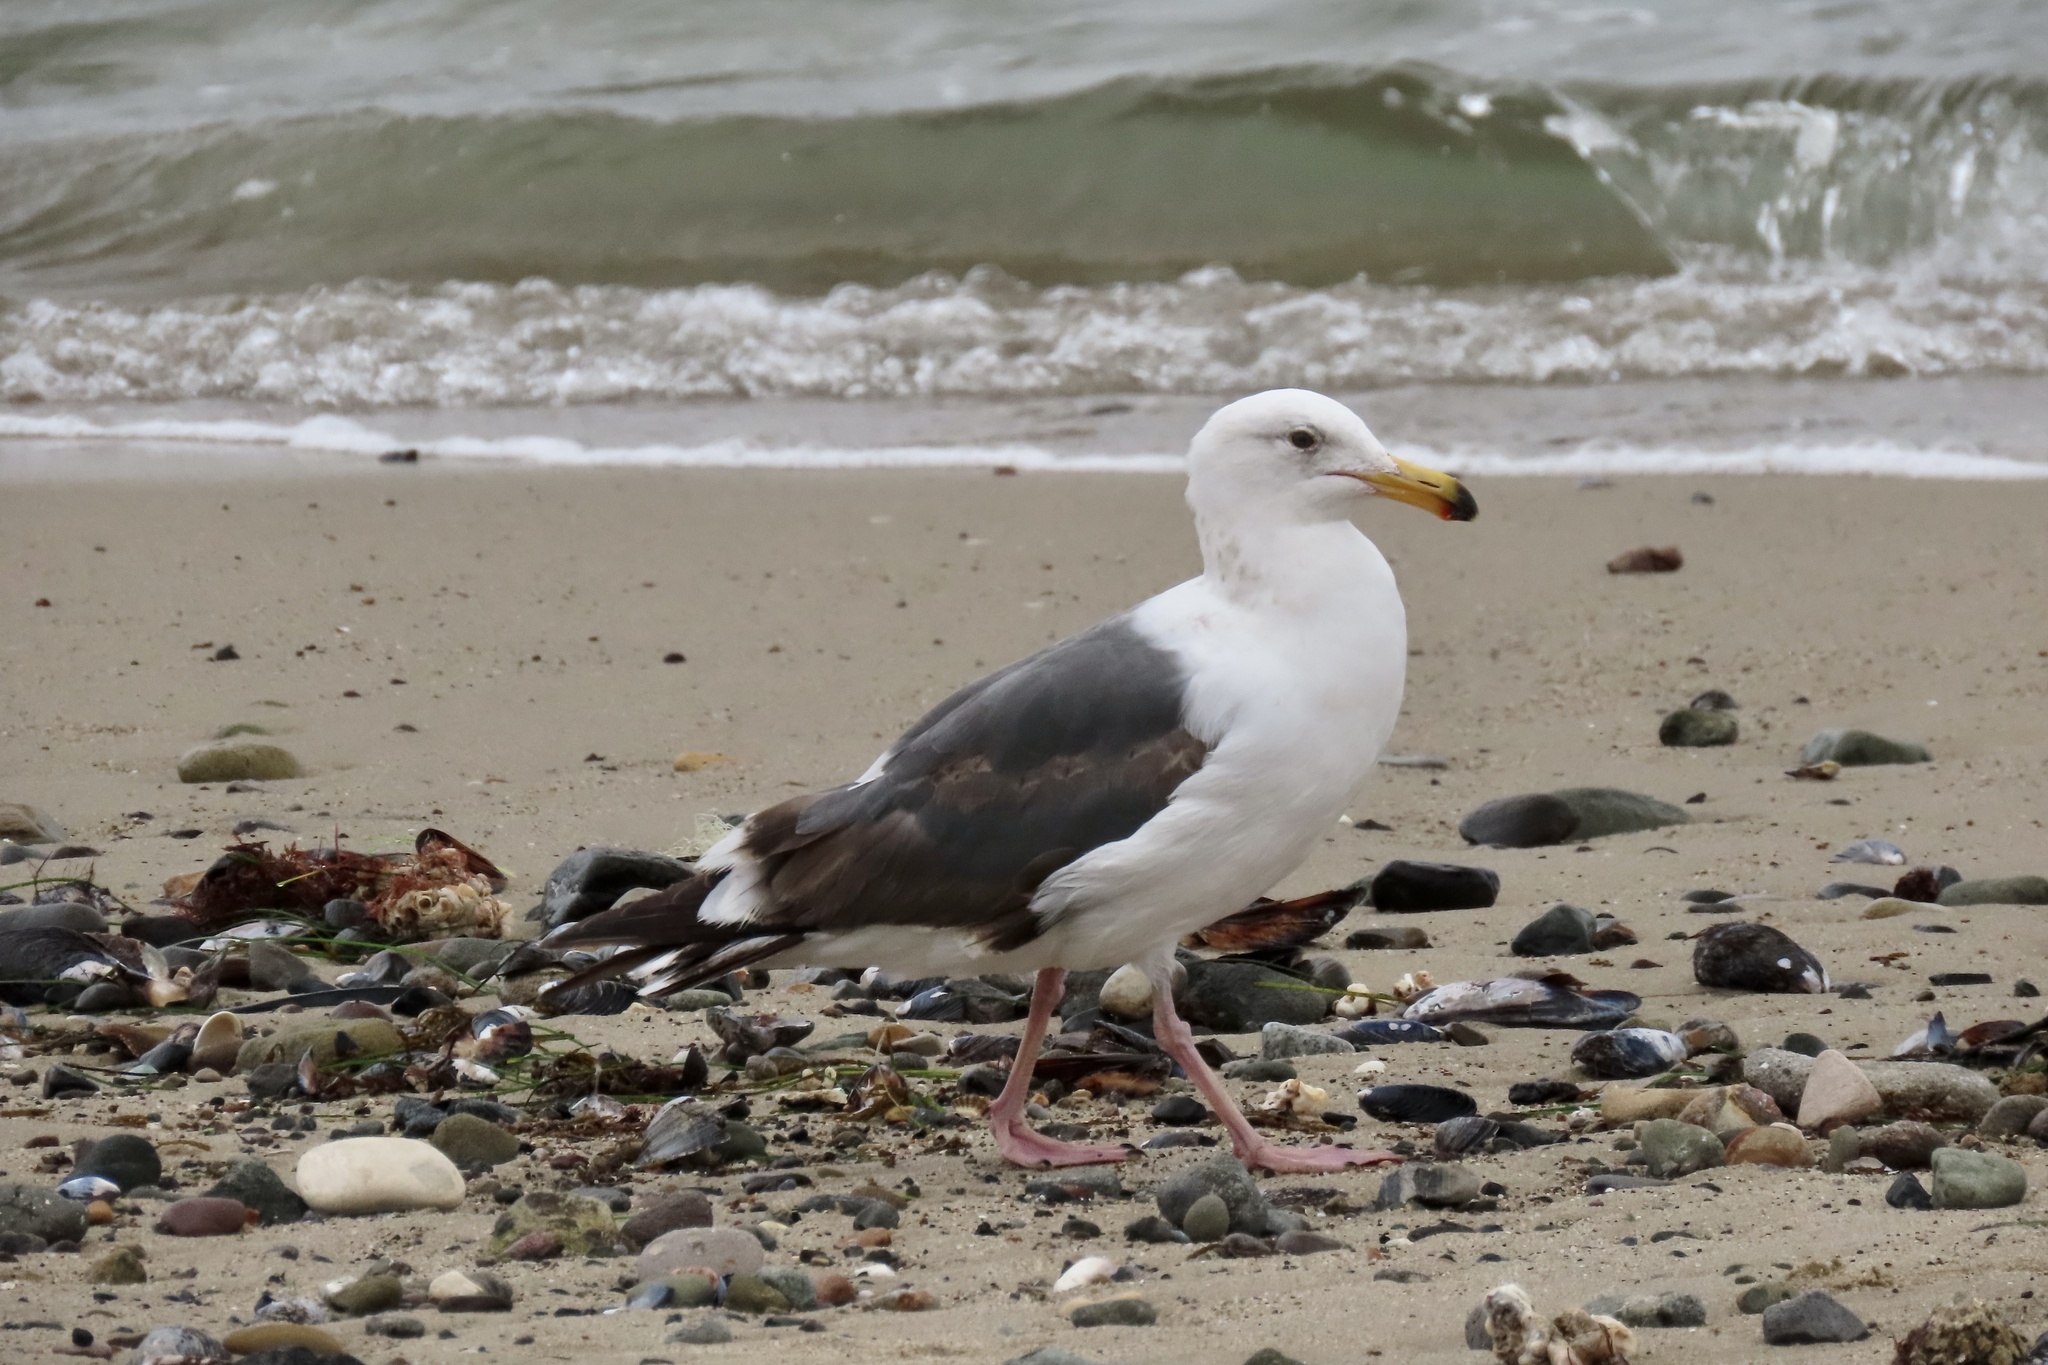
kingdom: Animalia
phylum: Chordata
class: Aves
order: Charadriiformes
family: Laridae
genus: Larus
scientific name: Larus occidentalis
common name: Western gull
